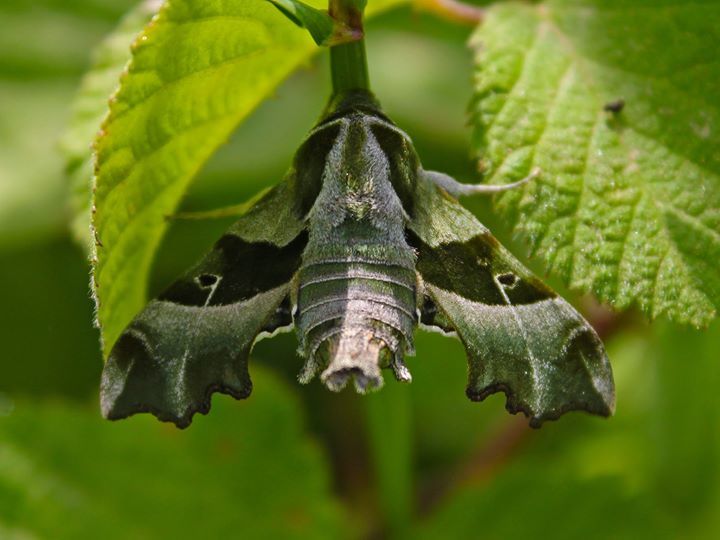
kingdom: Animalia
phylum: Arthropoda
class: Insecta
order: Lepidoptera
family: Sphingidae
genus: Proserpinus
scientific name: Proserpinus proserpina
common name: Willowherb hawkmoth
